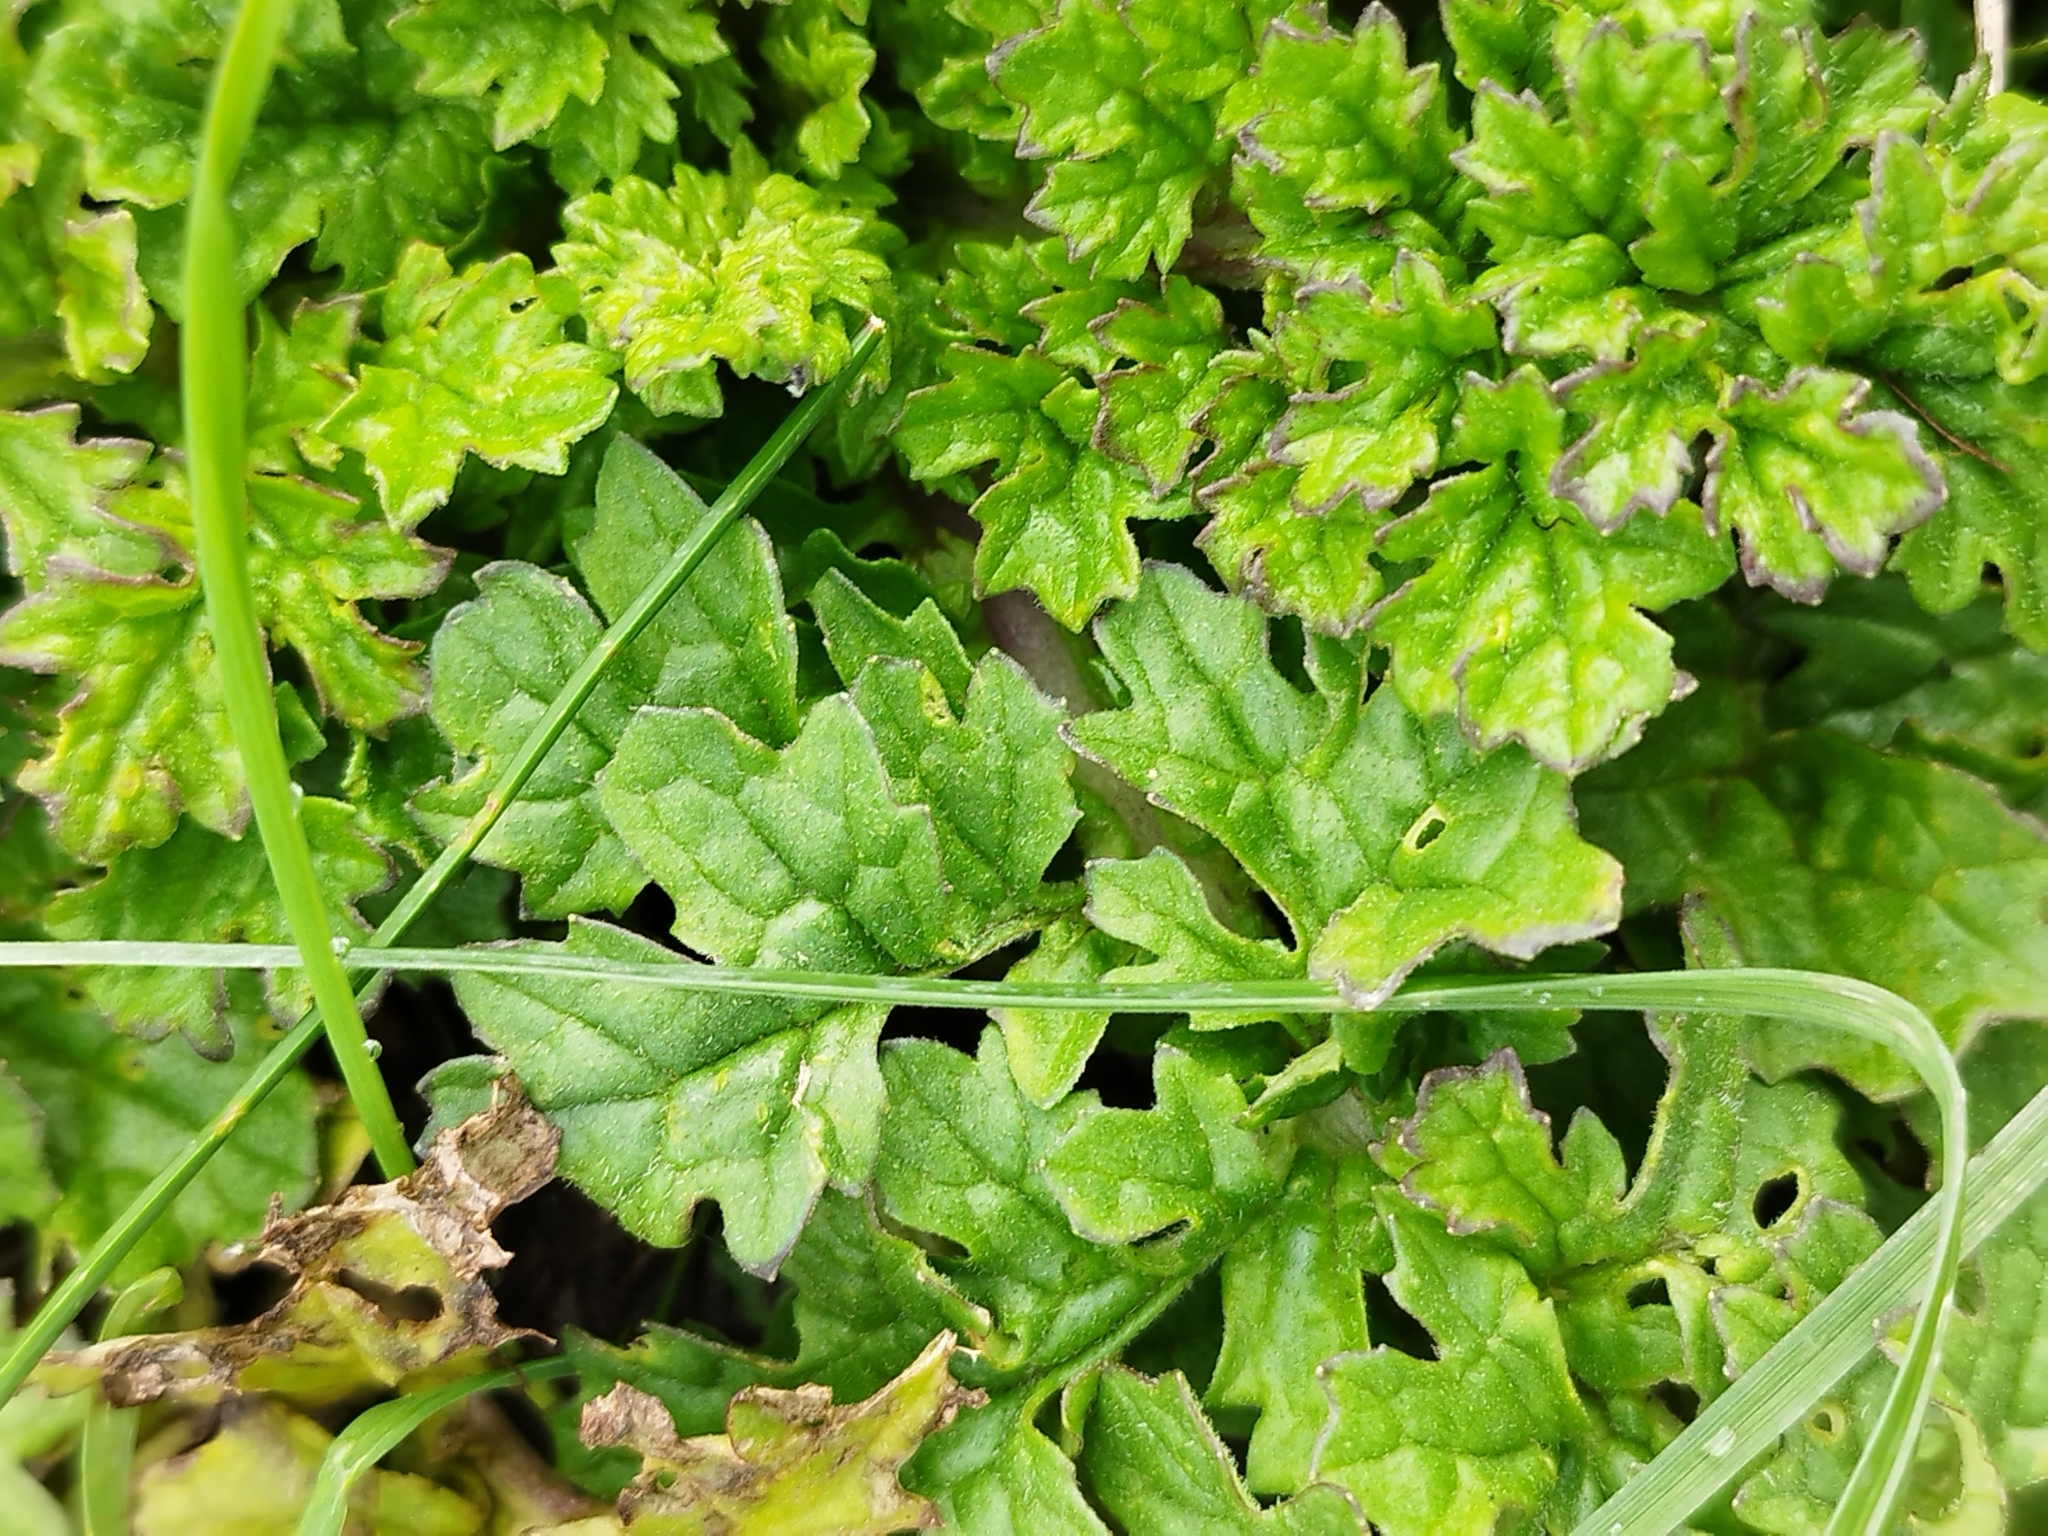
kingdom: Plantae
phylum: Tracheophyta
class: Magnoliopsida
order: Asterales
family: Asteraceae
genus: Jacobaea
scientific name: Jacobaea vulgaris
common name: Stinking willie
